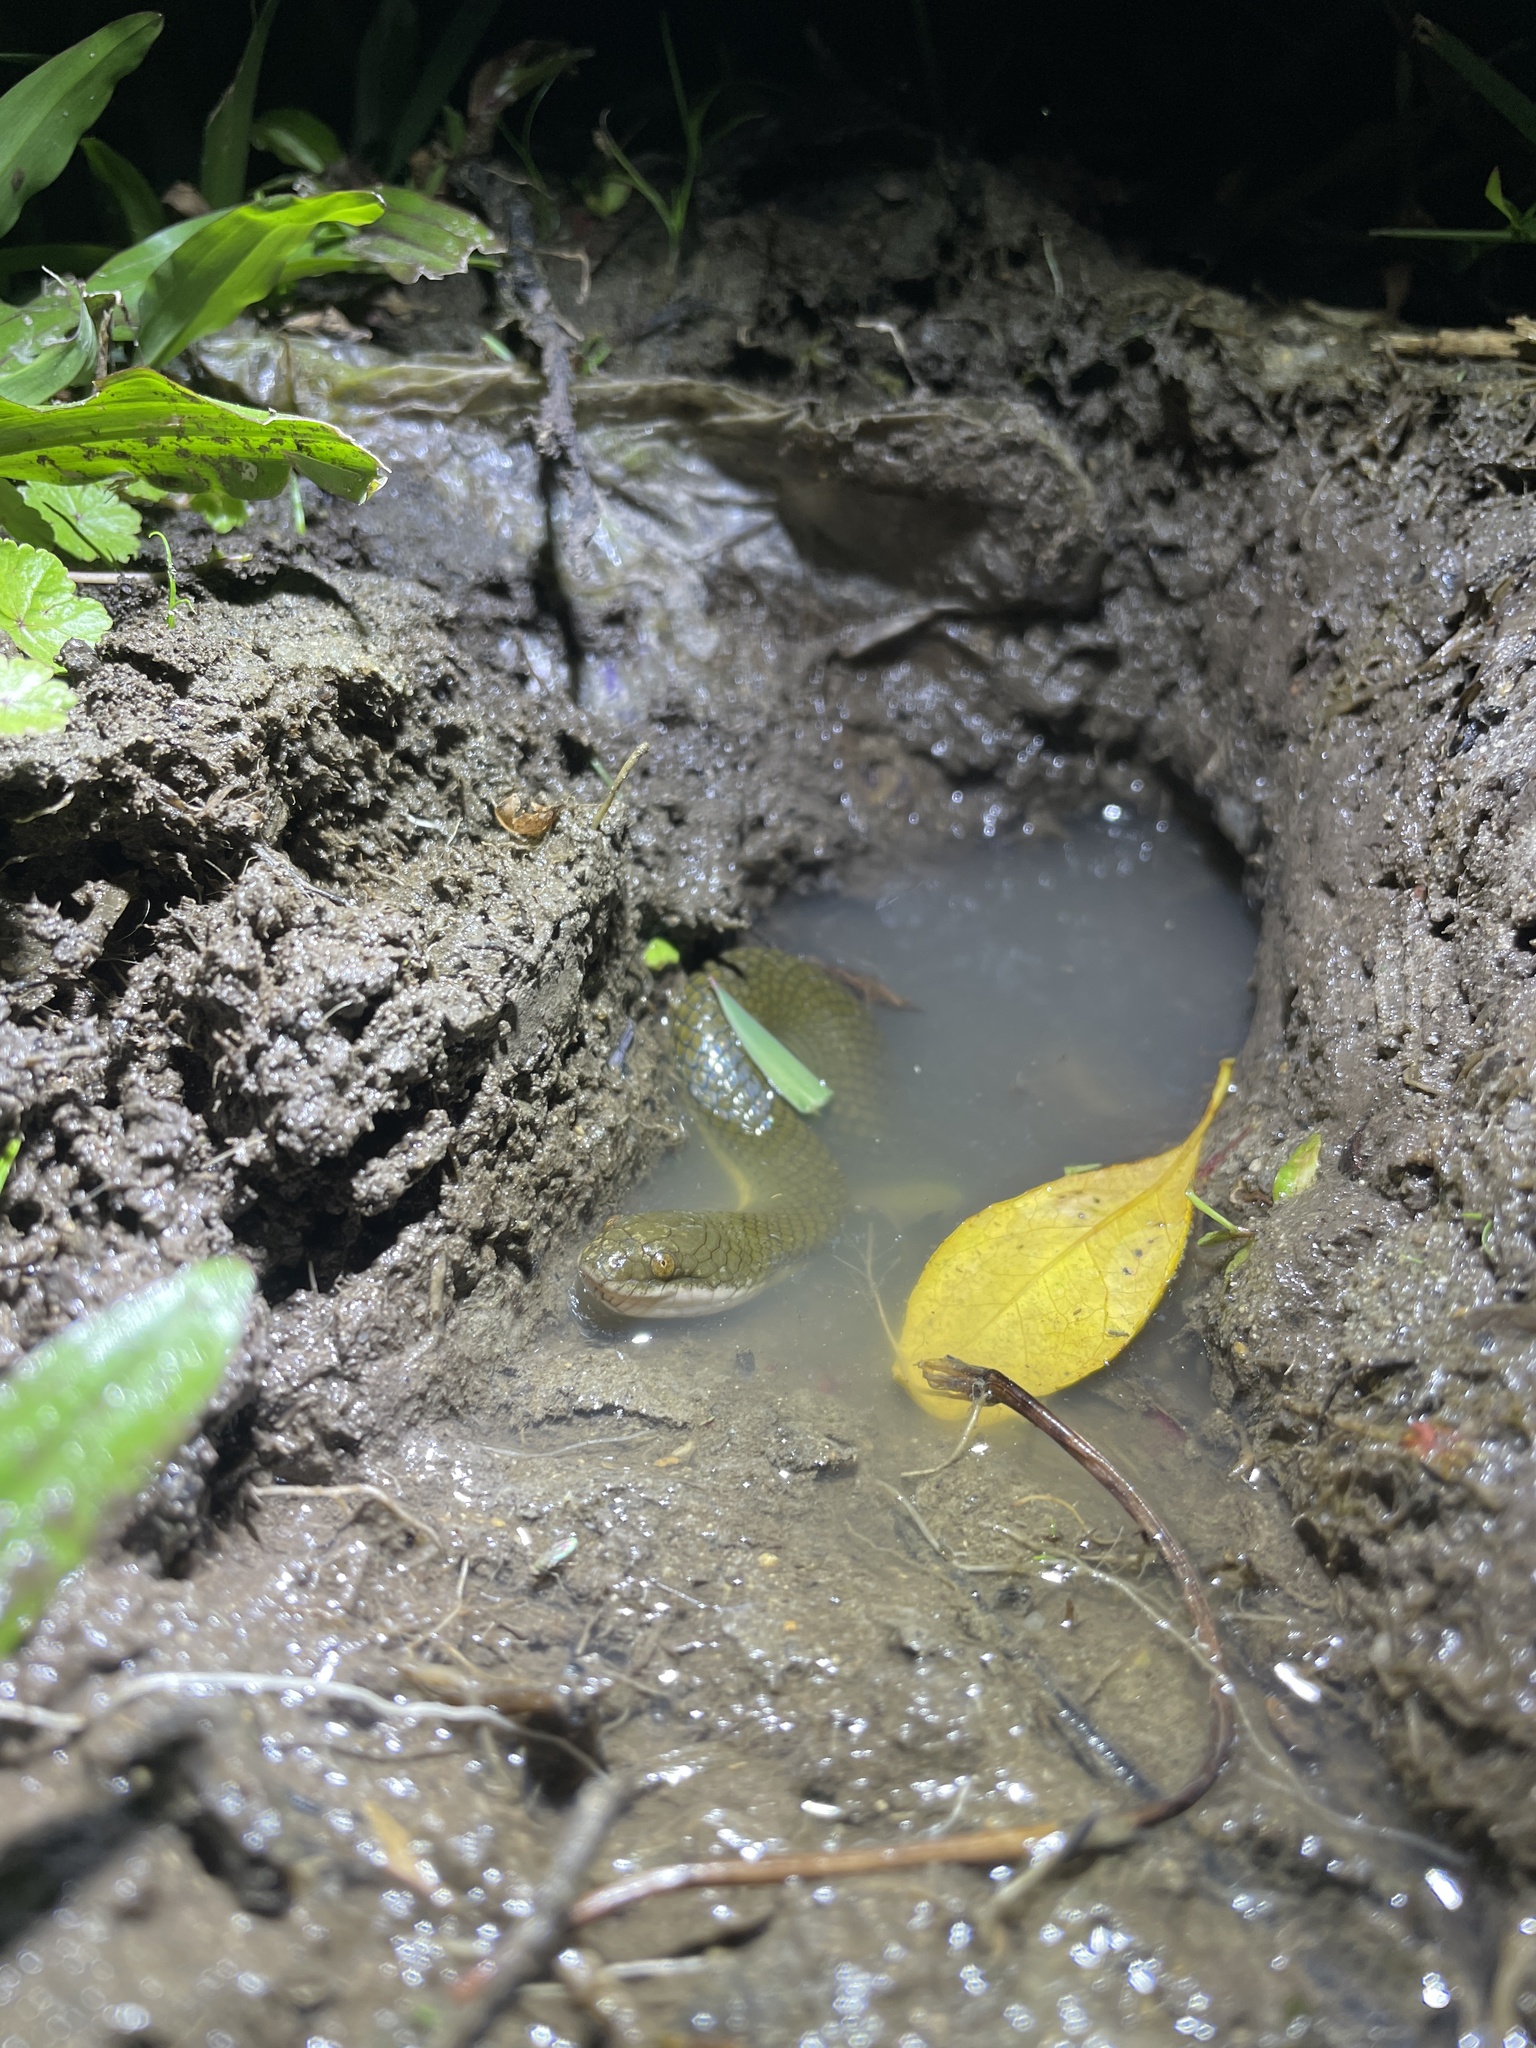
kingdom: Animalia
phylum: Chordata
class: Squamata
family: Homalopsidae
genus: Hypsiscopus
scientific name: Hypsiscopus
